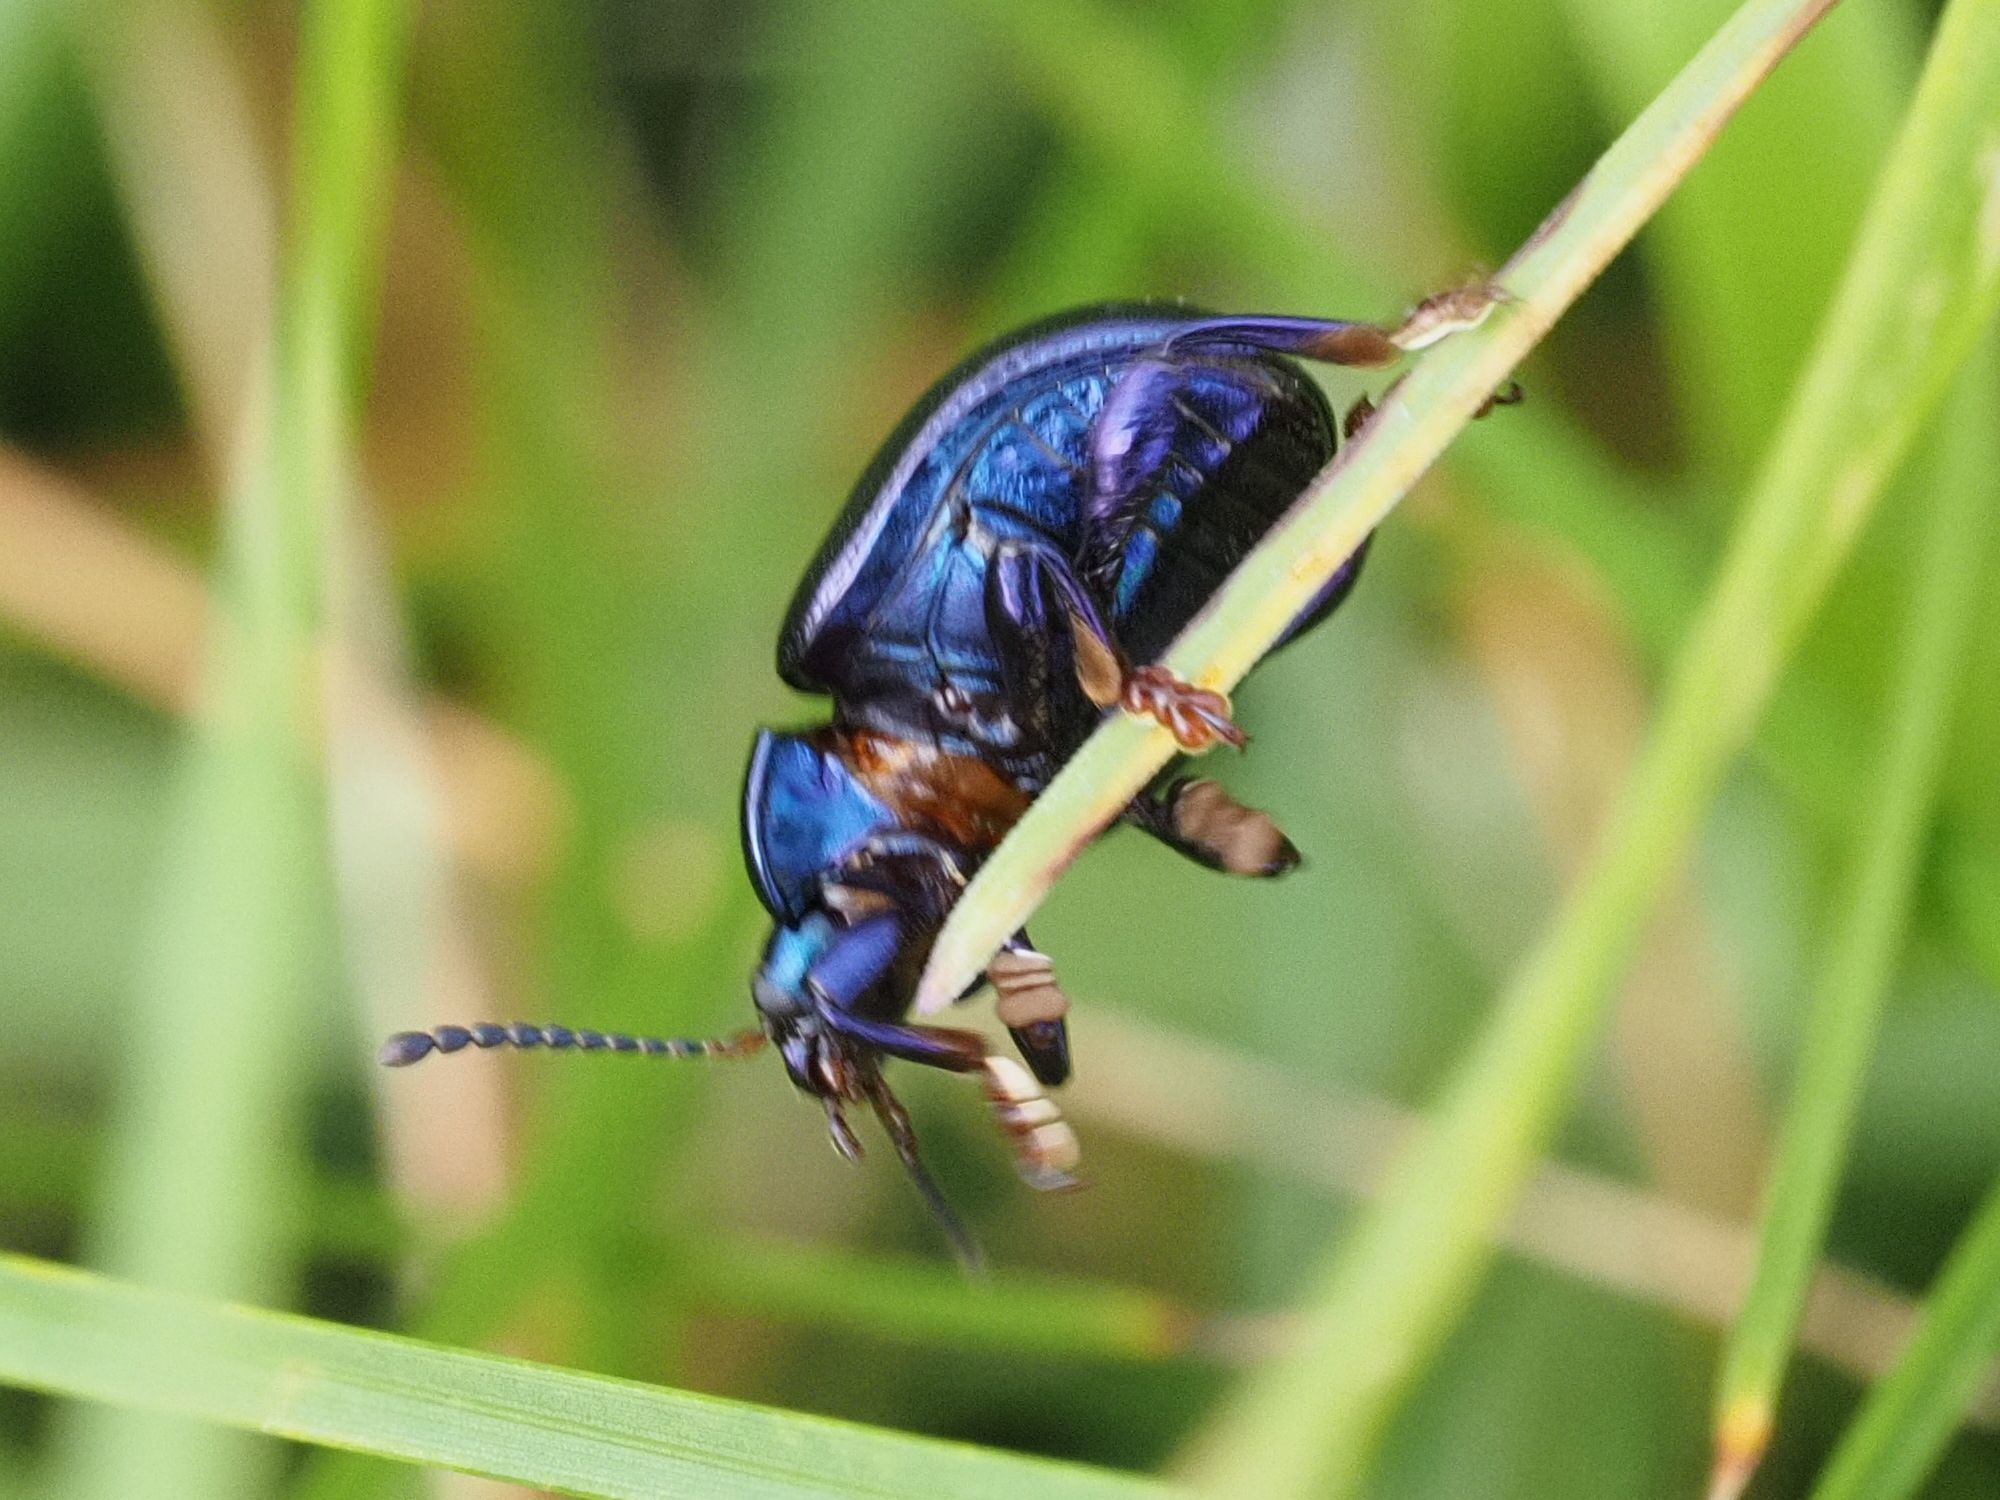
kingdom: Animalia
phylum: Arthropoda
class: Insecta
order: Coleoptera
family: Chrysomelidae
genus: Chrysolina
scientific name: Chrysolina sturmi
